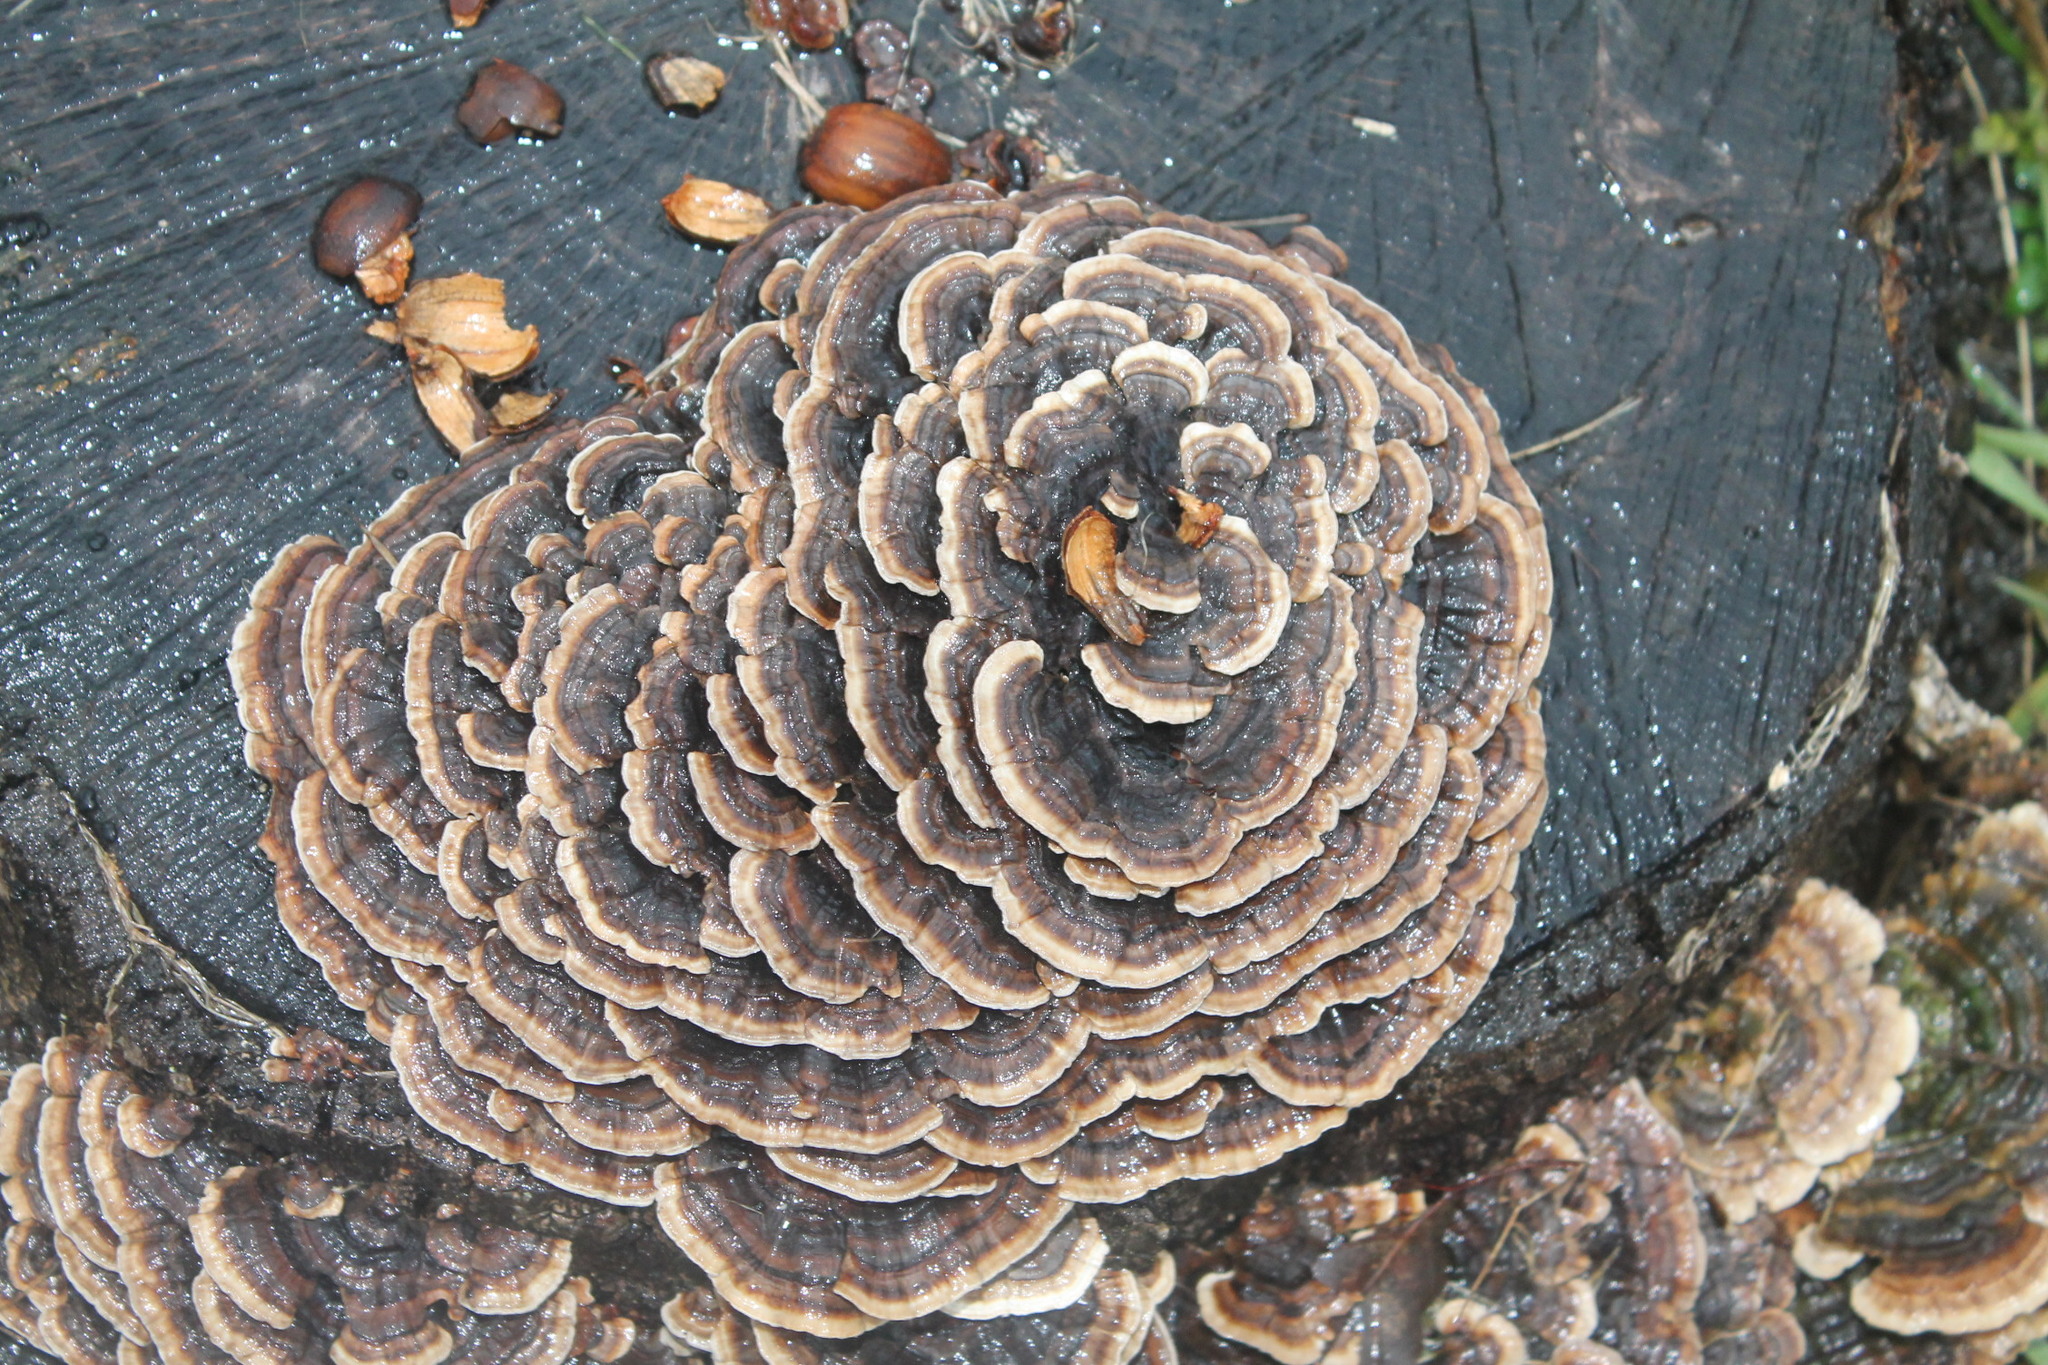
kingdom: Fungi
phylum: Basidiomycota
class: Agaricomycetes
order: Polyporales
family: Polyporaceae
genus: Trametes
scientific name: Trametes versicolor
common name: Turkeytail
